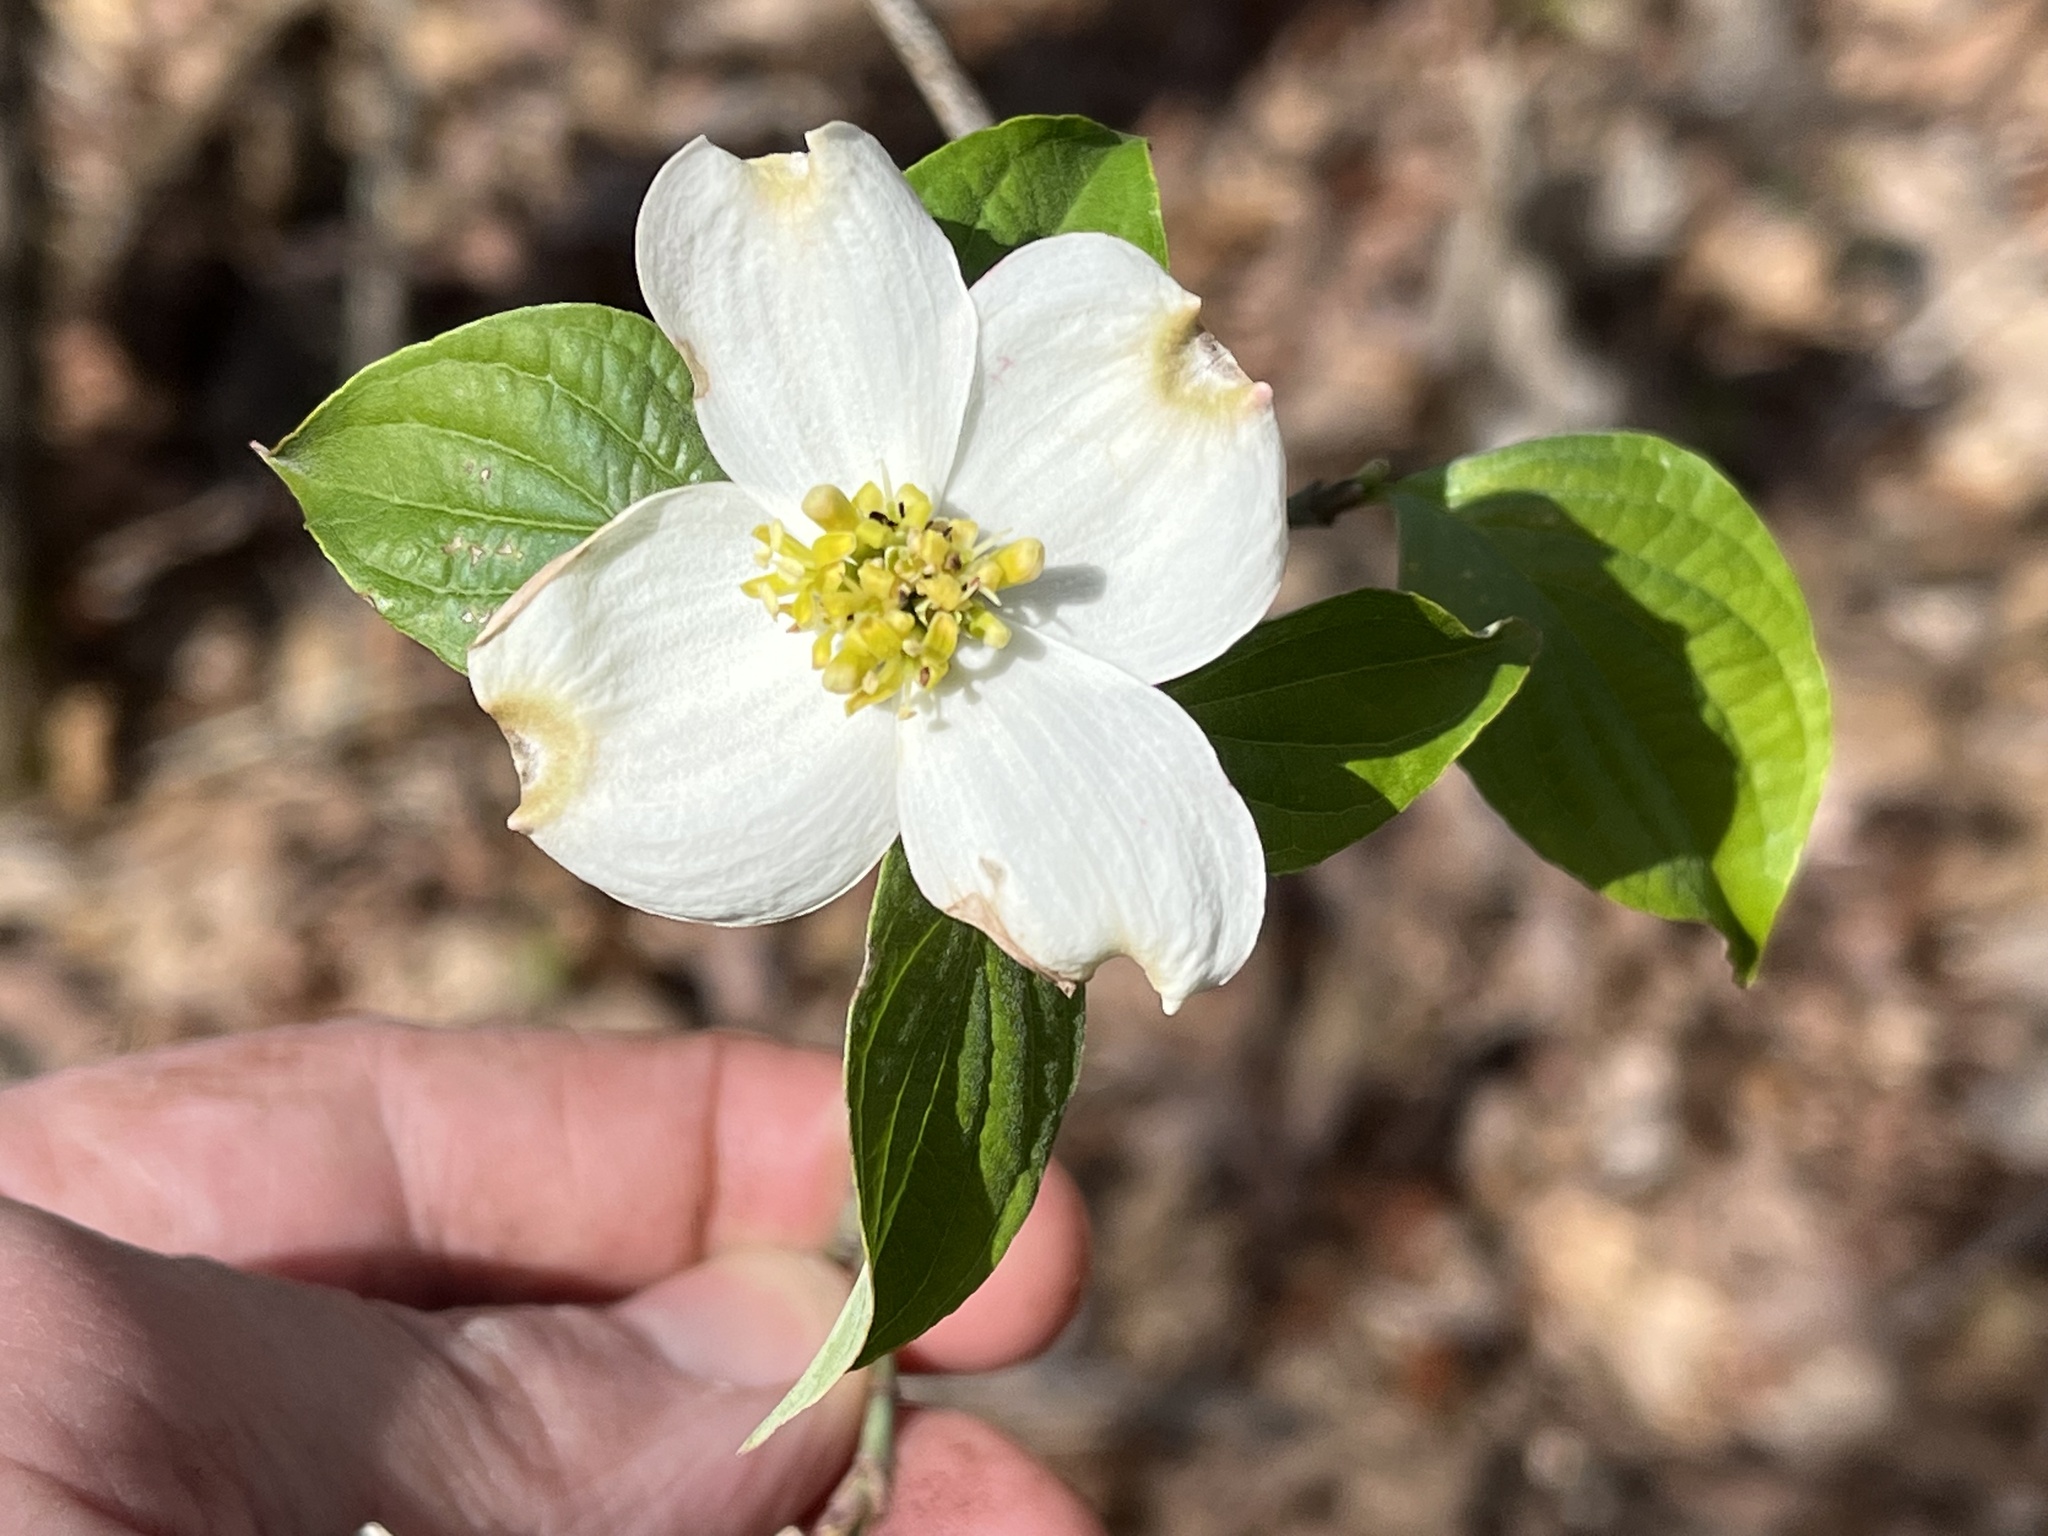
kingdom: Plantae
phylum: Tracheophyta
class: Magnoliopsida
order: Cornales
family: Cornaceae
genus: Cornus
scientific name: Cornus florida
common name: Flowering dogwood
